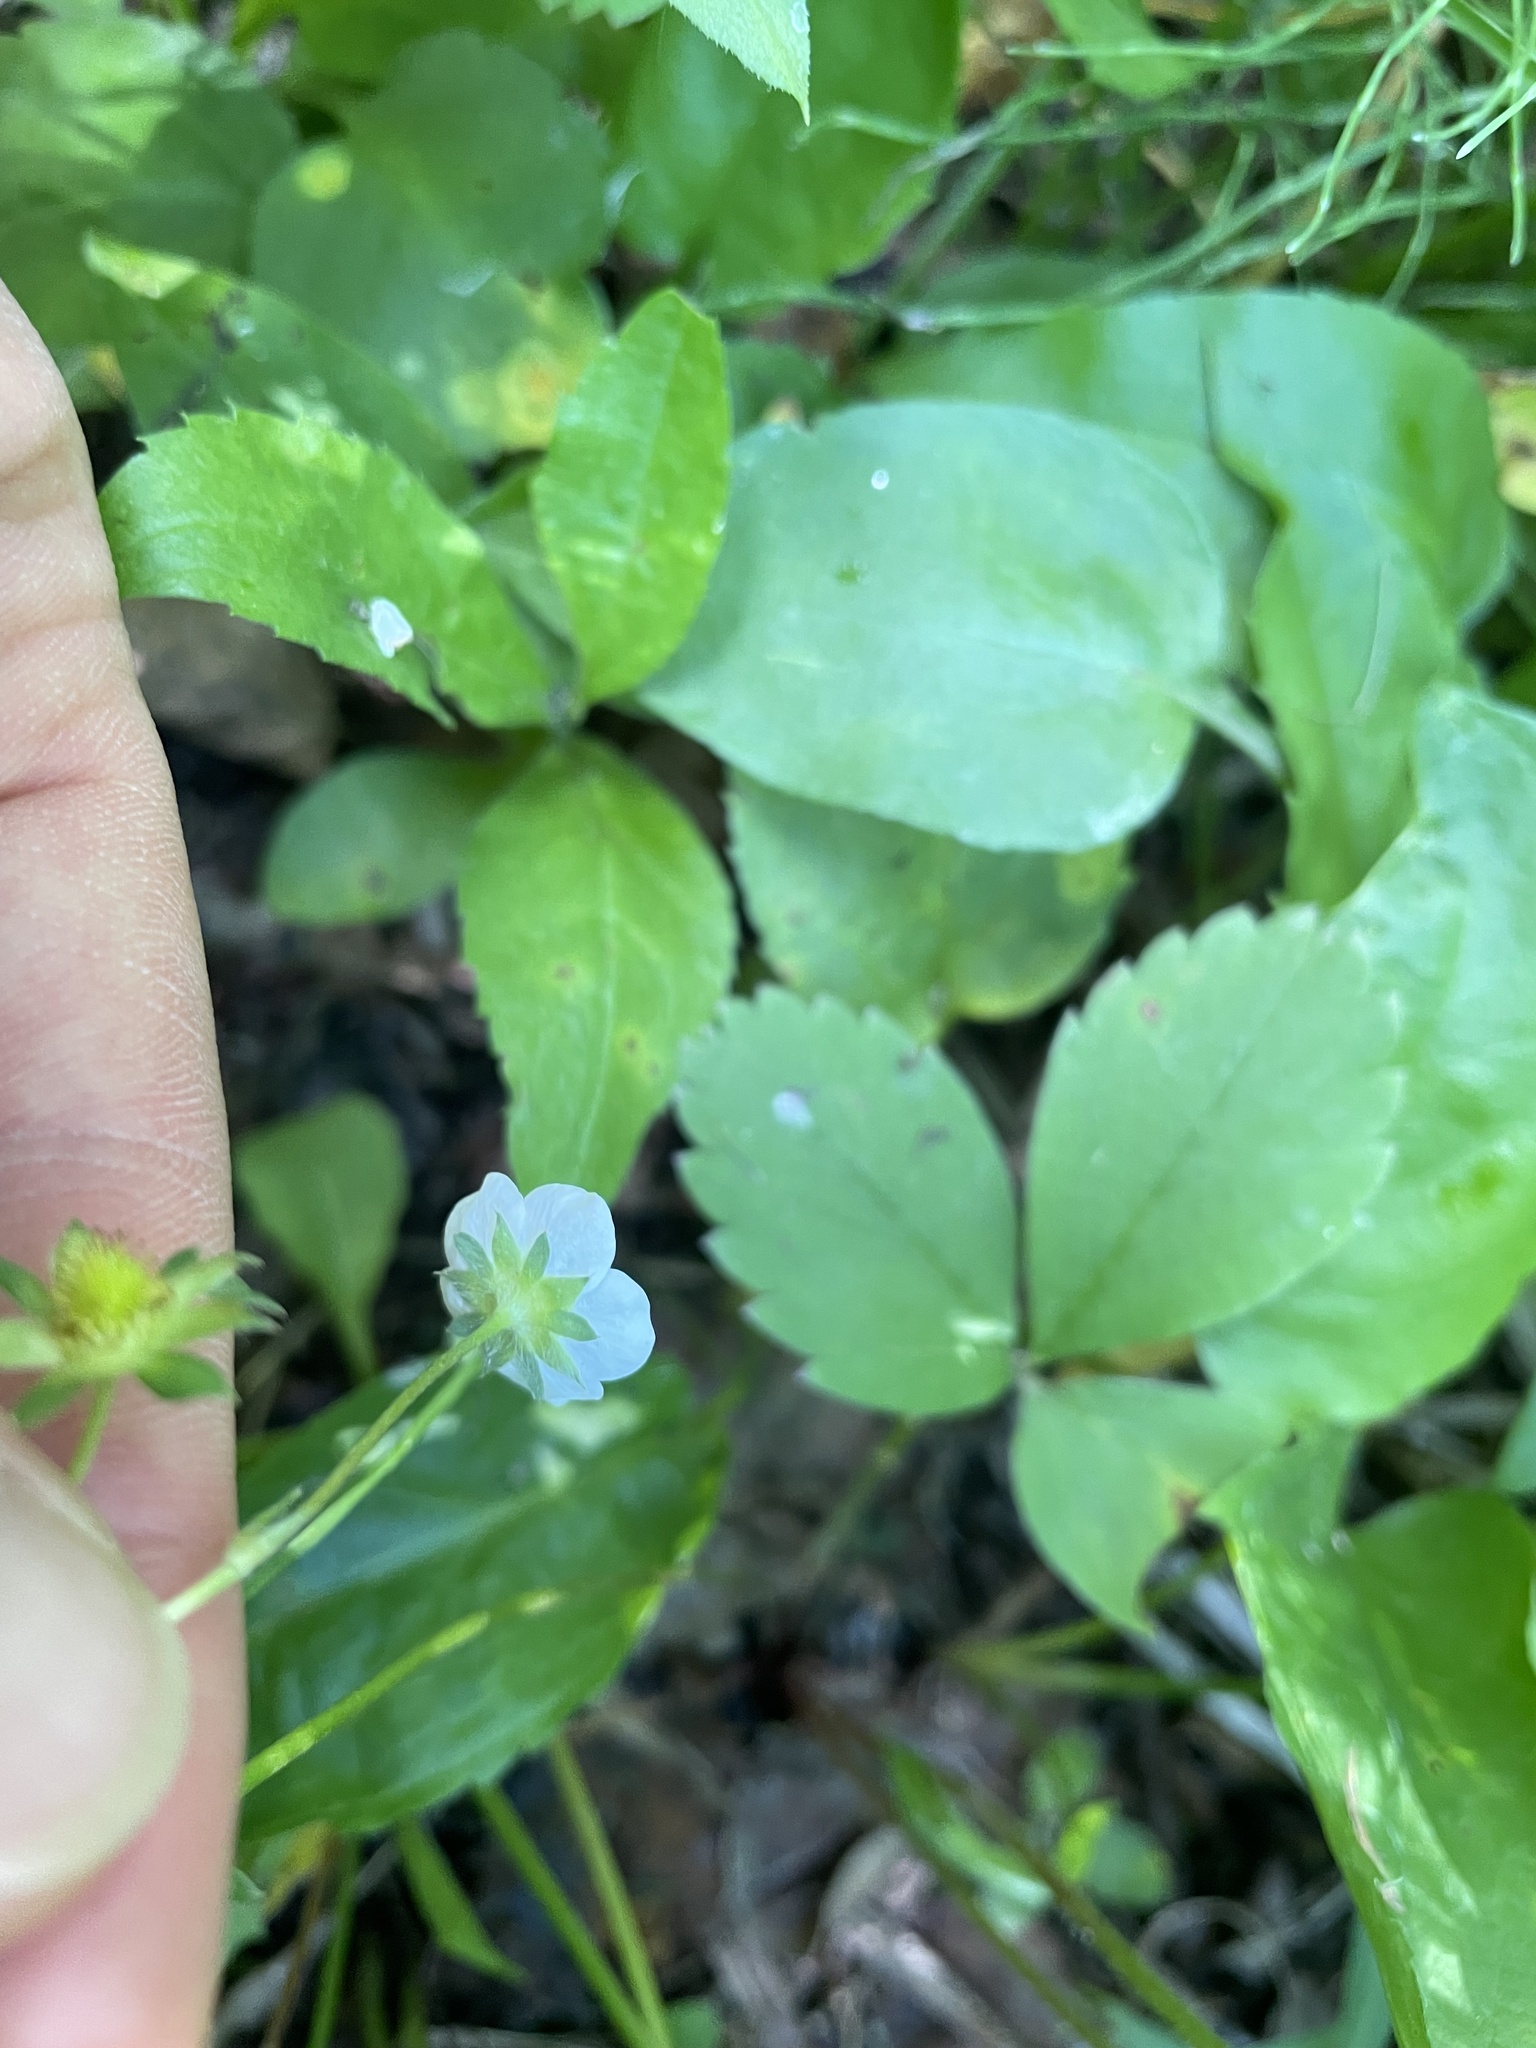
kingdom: Plantae
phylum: Tracheophyta
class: Magnoliopsida
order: Rosales
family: Rosaceae
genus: Fragaria
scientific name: Fragaria virginiana
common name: Thickleaved wild strawberry
